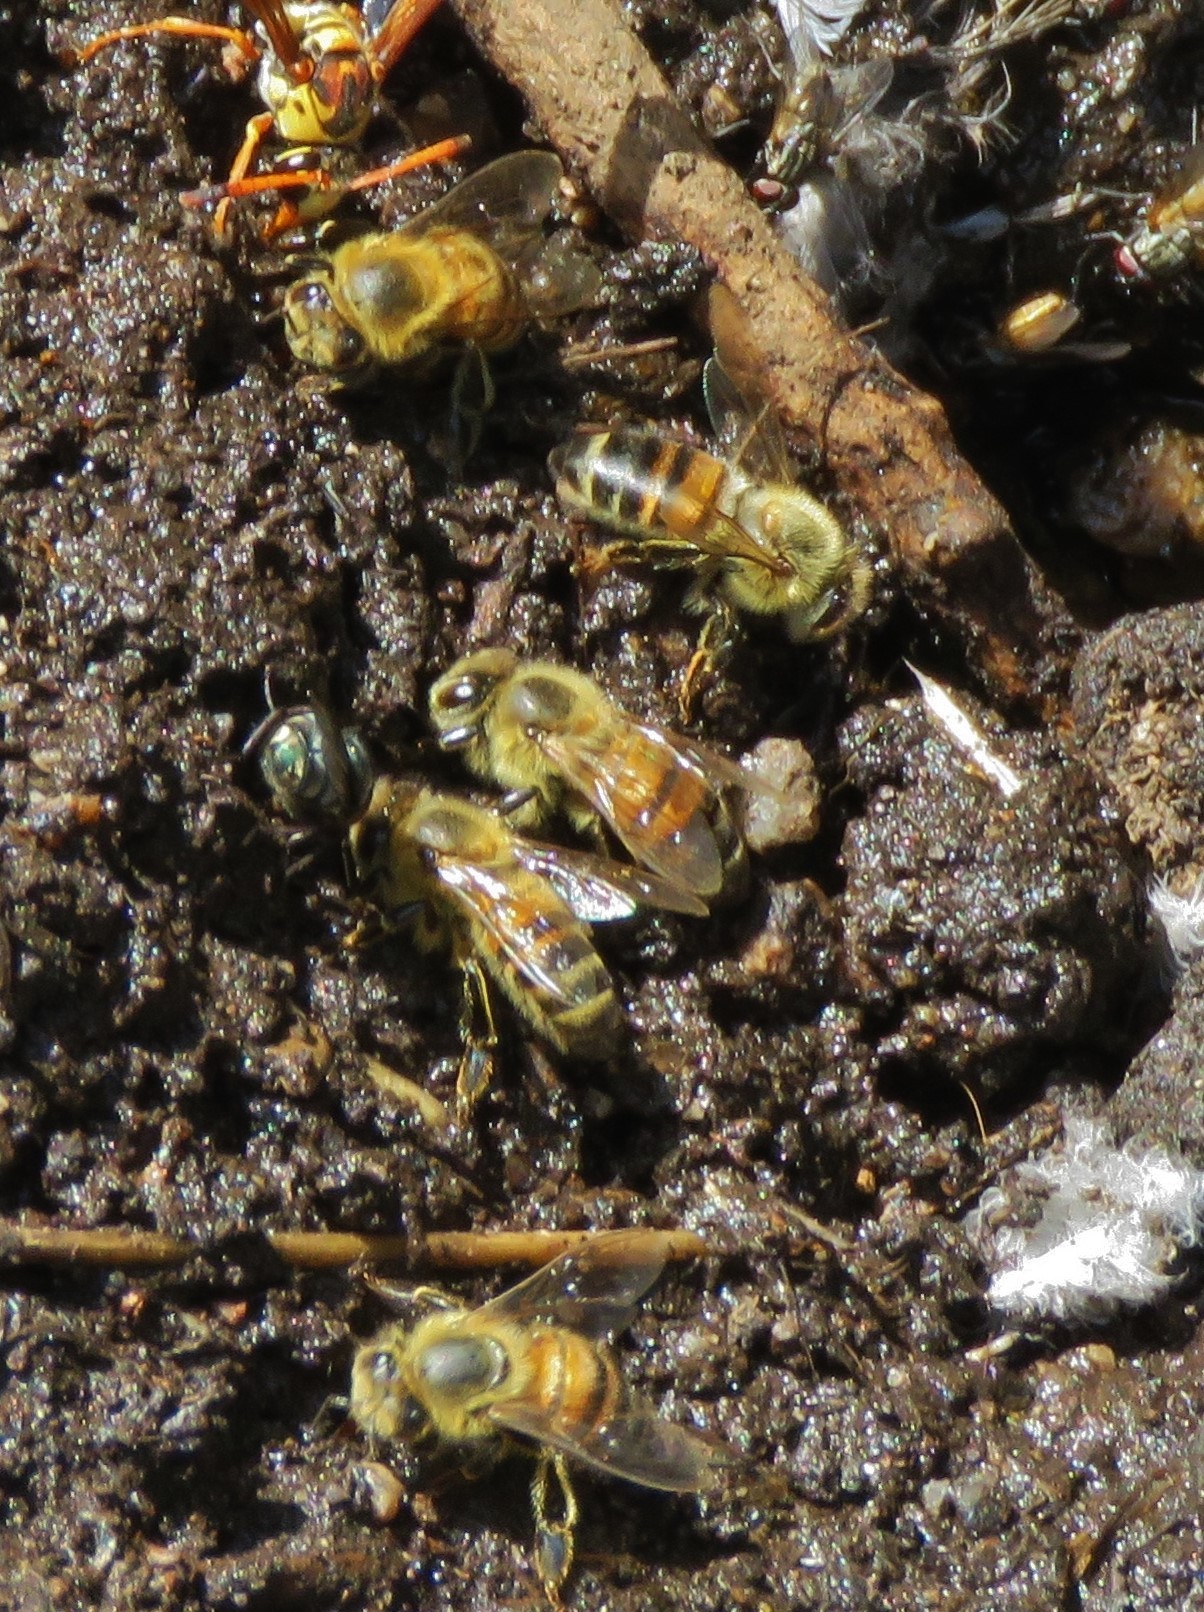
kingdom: Animalia
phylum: Arthropoda
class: Insecta
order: Hymenoptera
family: Apidae
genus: Apis
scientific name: Apis mellifera
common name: Honey bee
